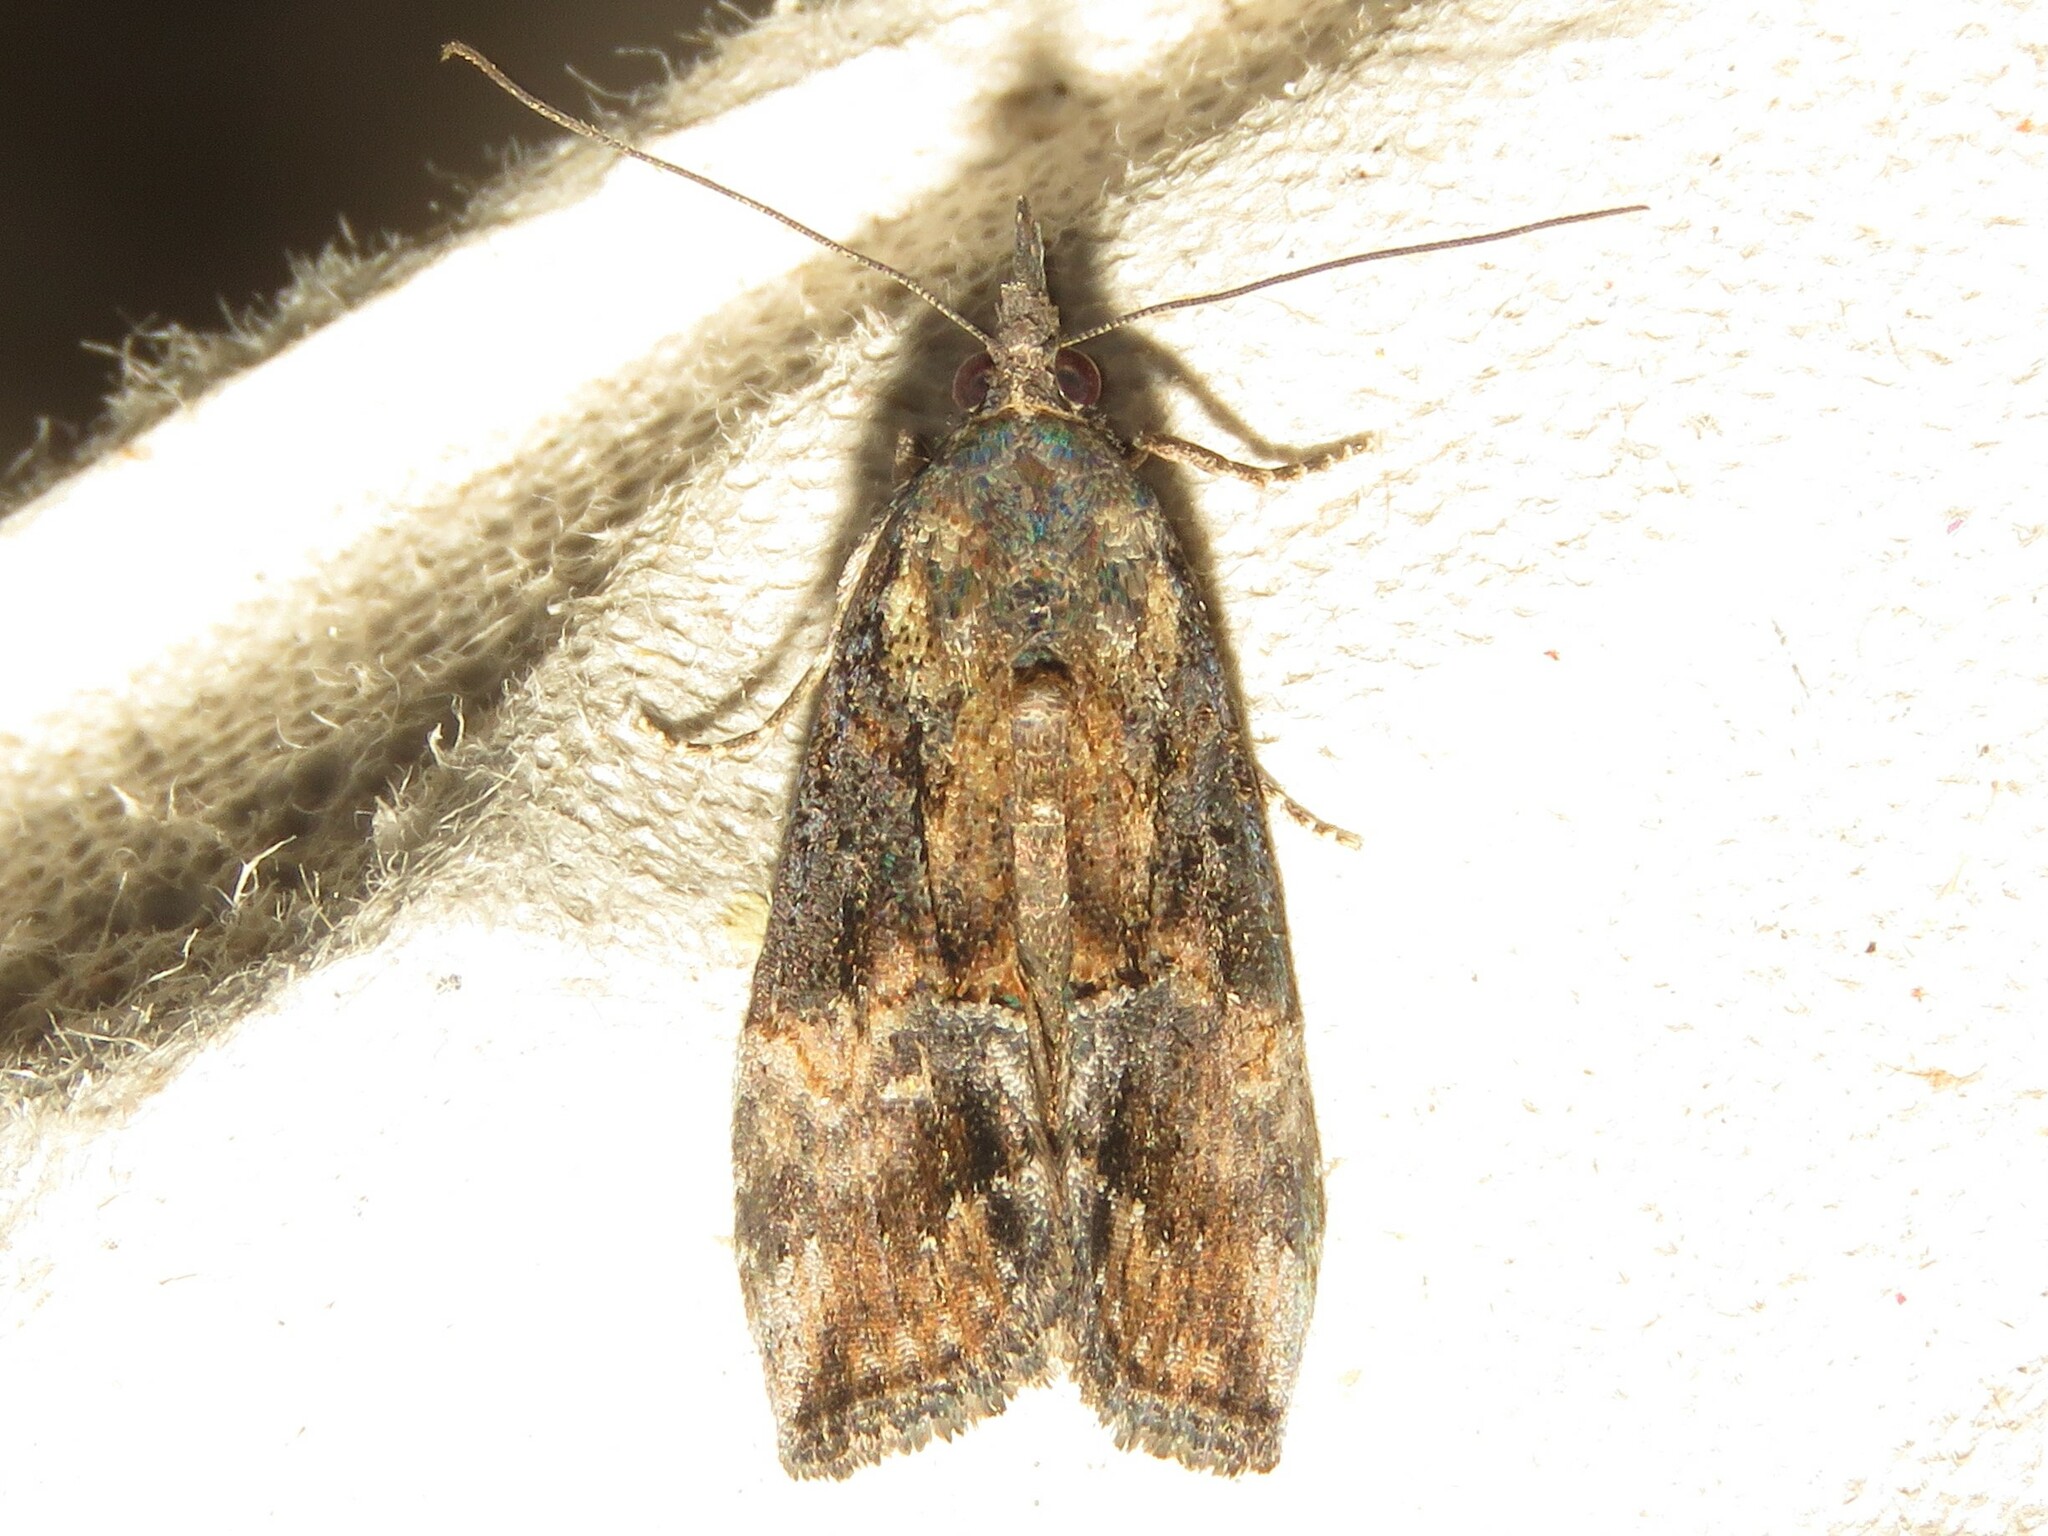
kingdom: Animalia
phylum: Arthropoda
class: Insecta
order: Lepidoptera
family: Erebidae
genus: Hypena
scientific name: Hypena scabra
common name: Green cloverworm
